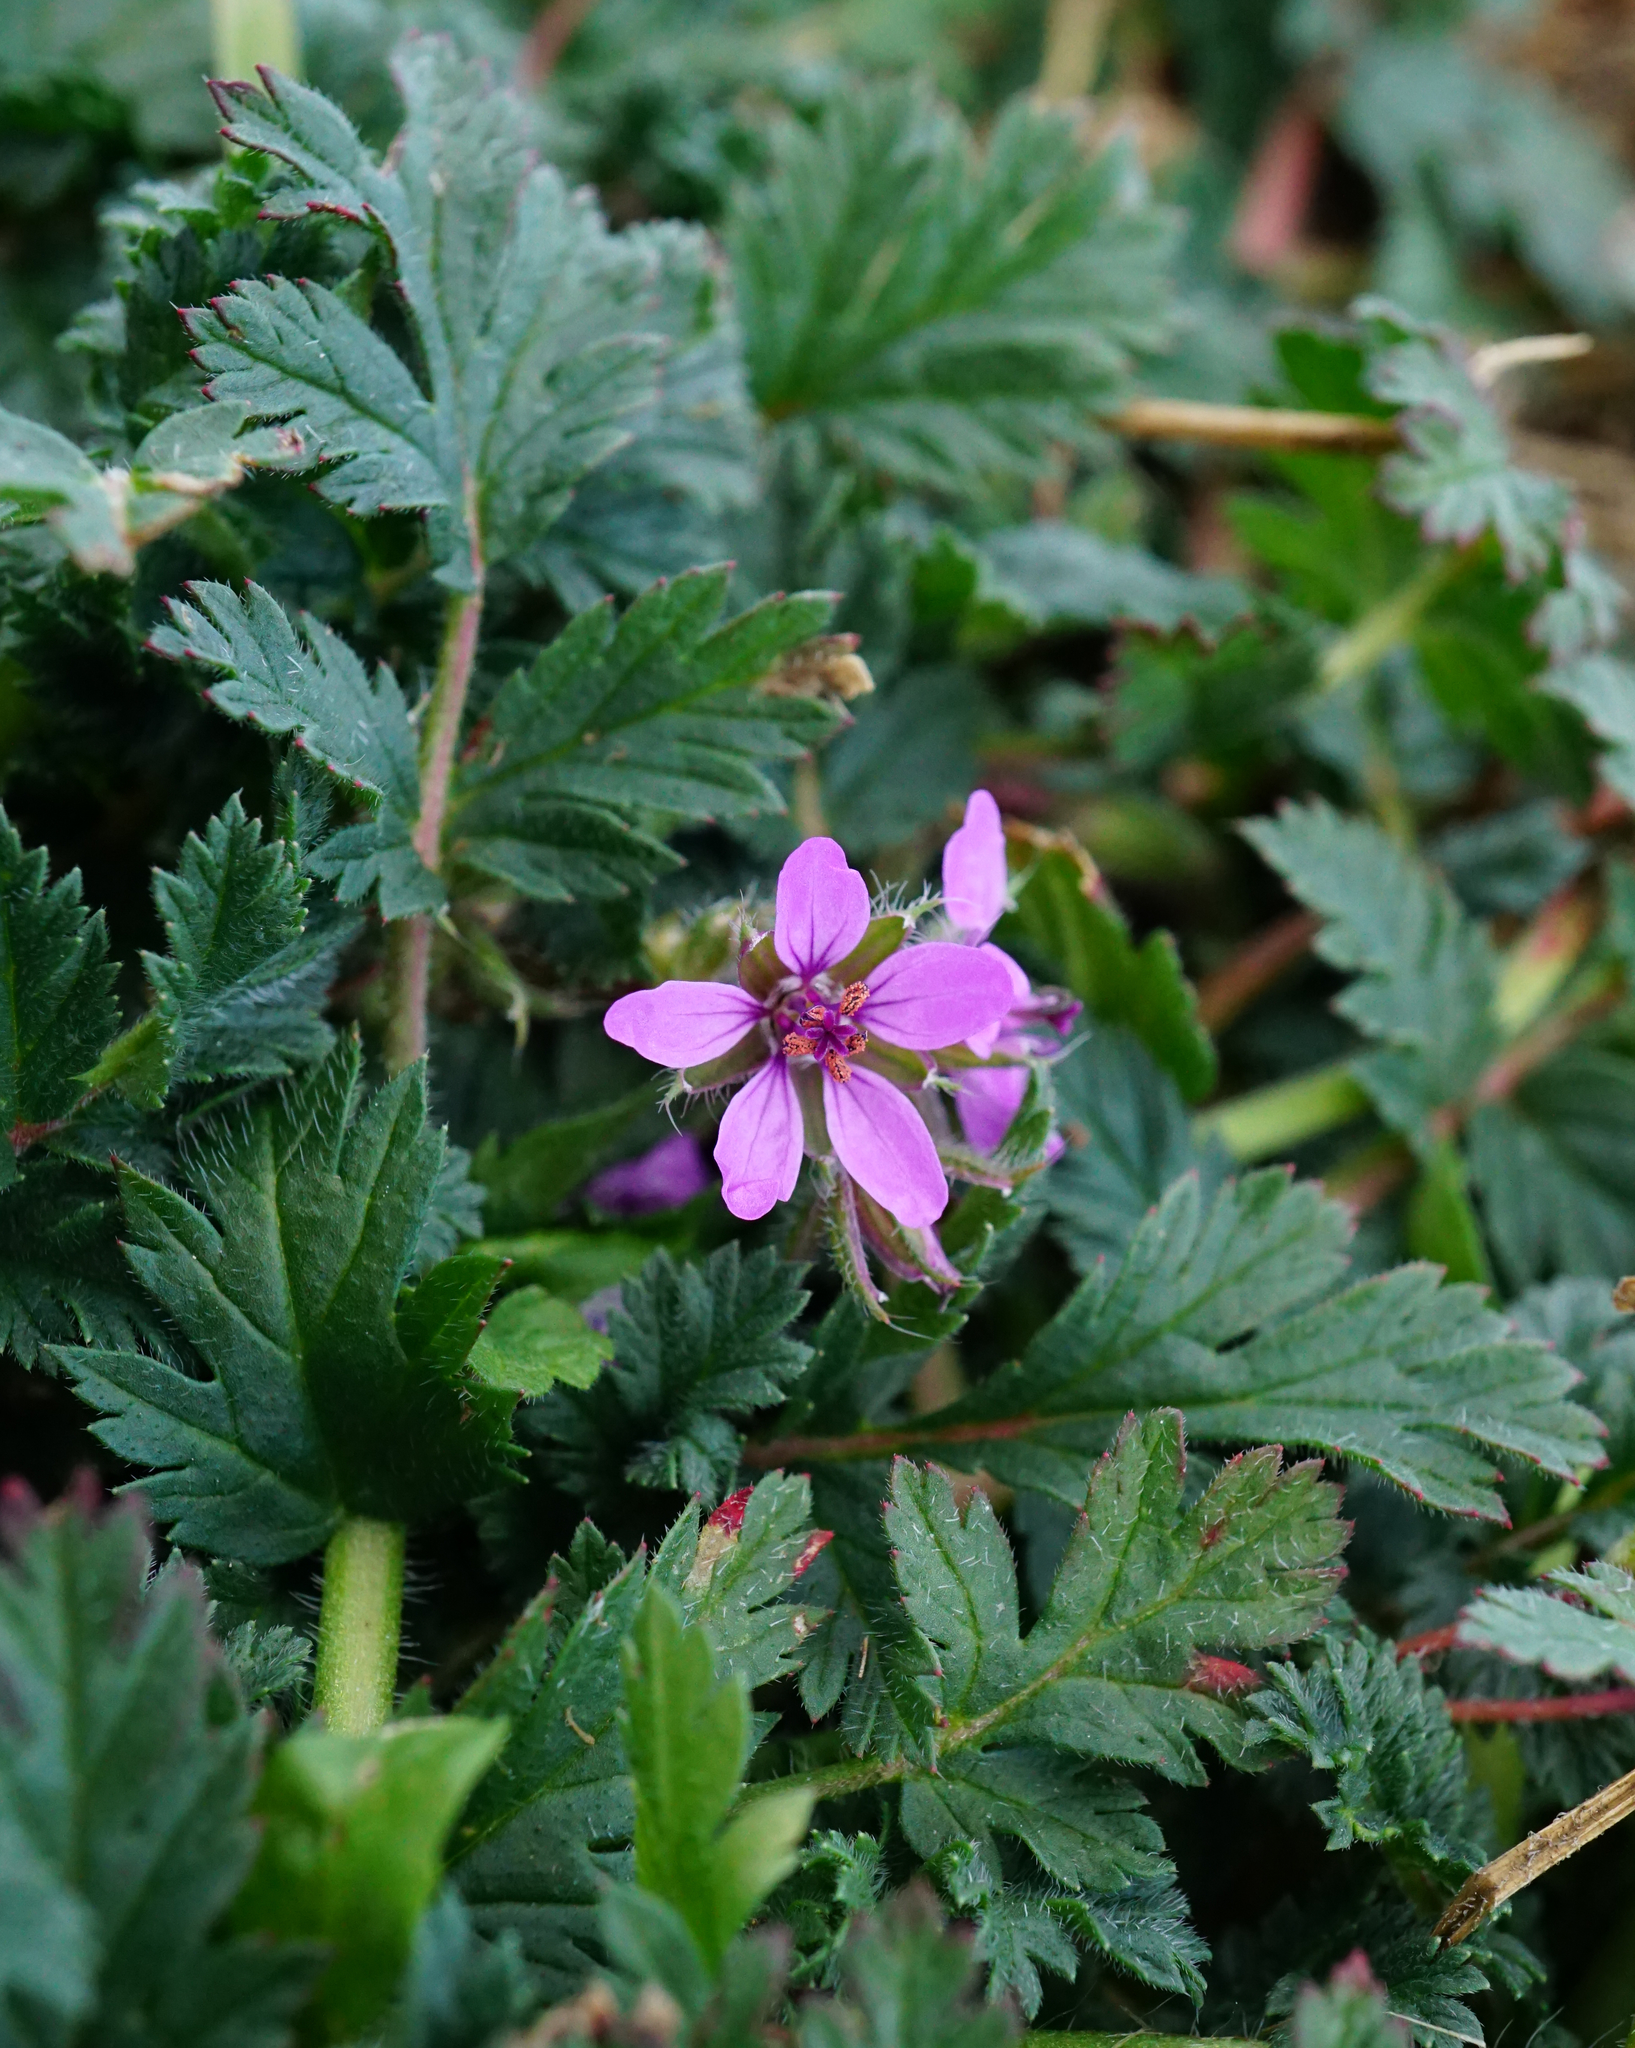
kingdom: Plantae
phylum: Tracheophyta
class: Magnoliopsida
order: Geraniales
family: Geraniaceae
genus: Erodium
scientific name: Erodium cicutarium
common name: Common stork's-bill
